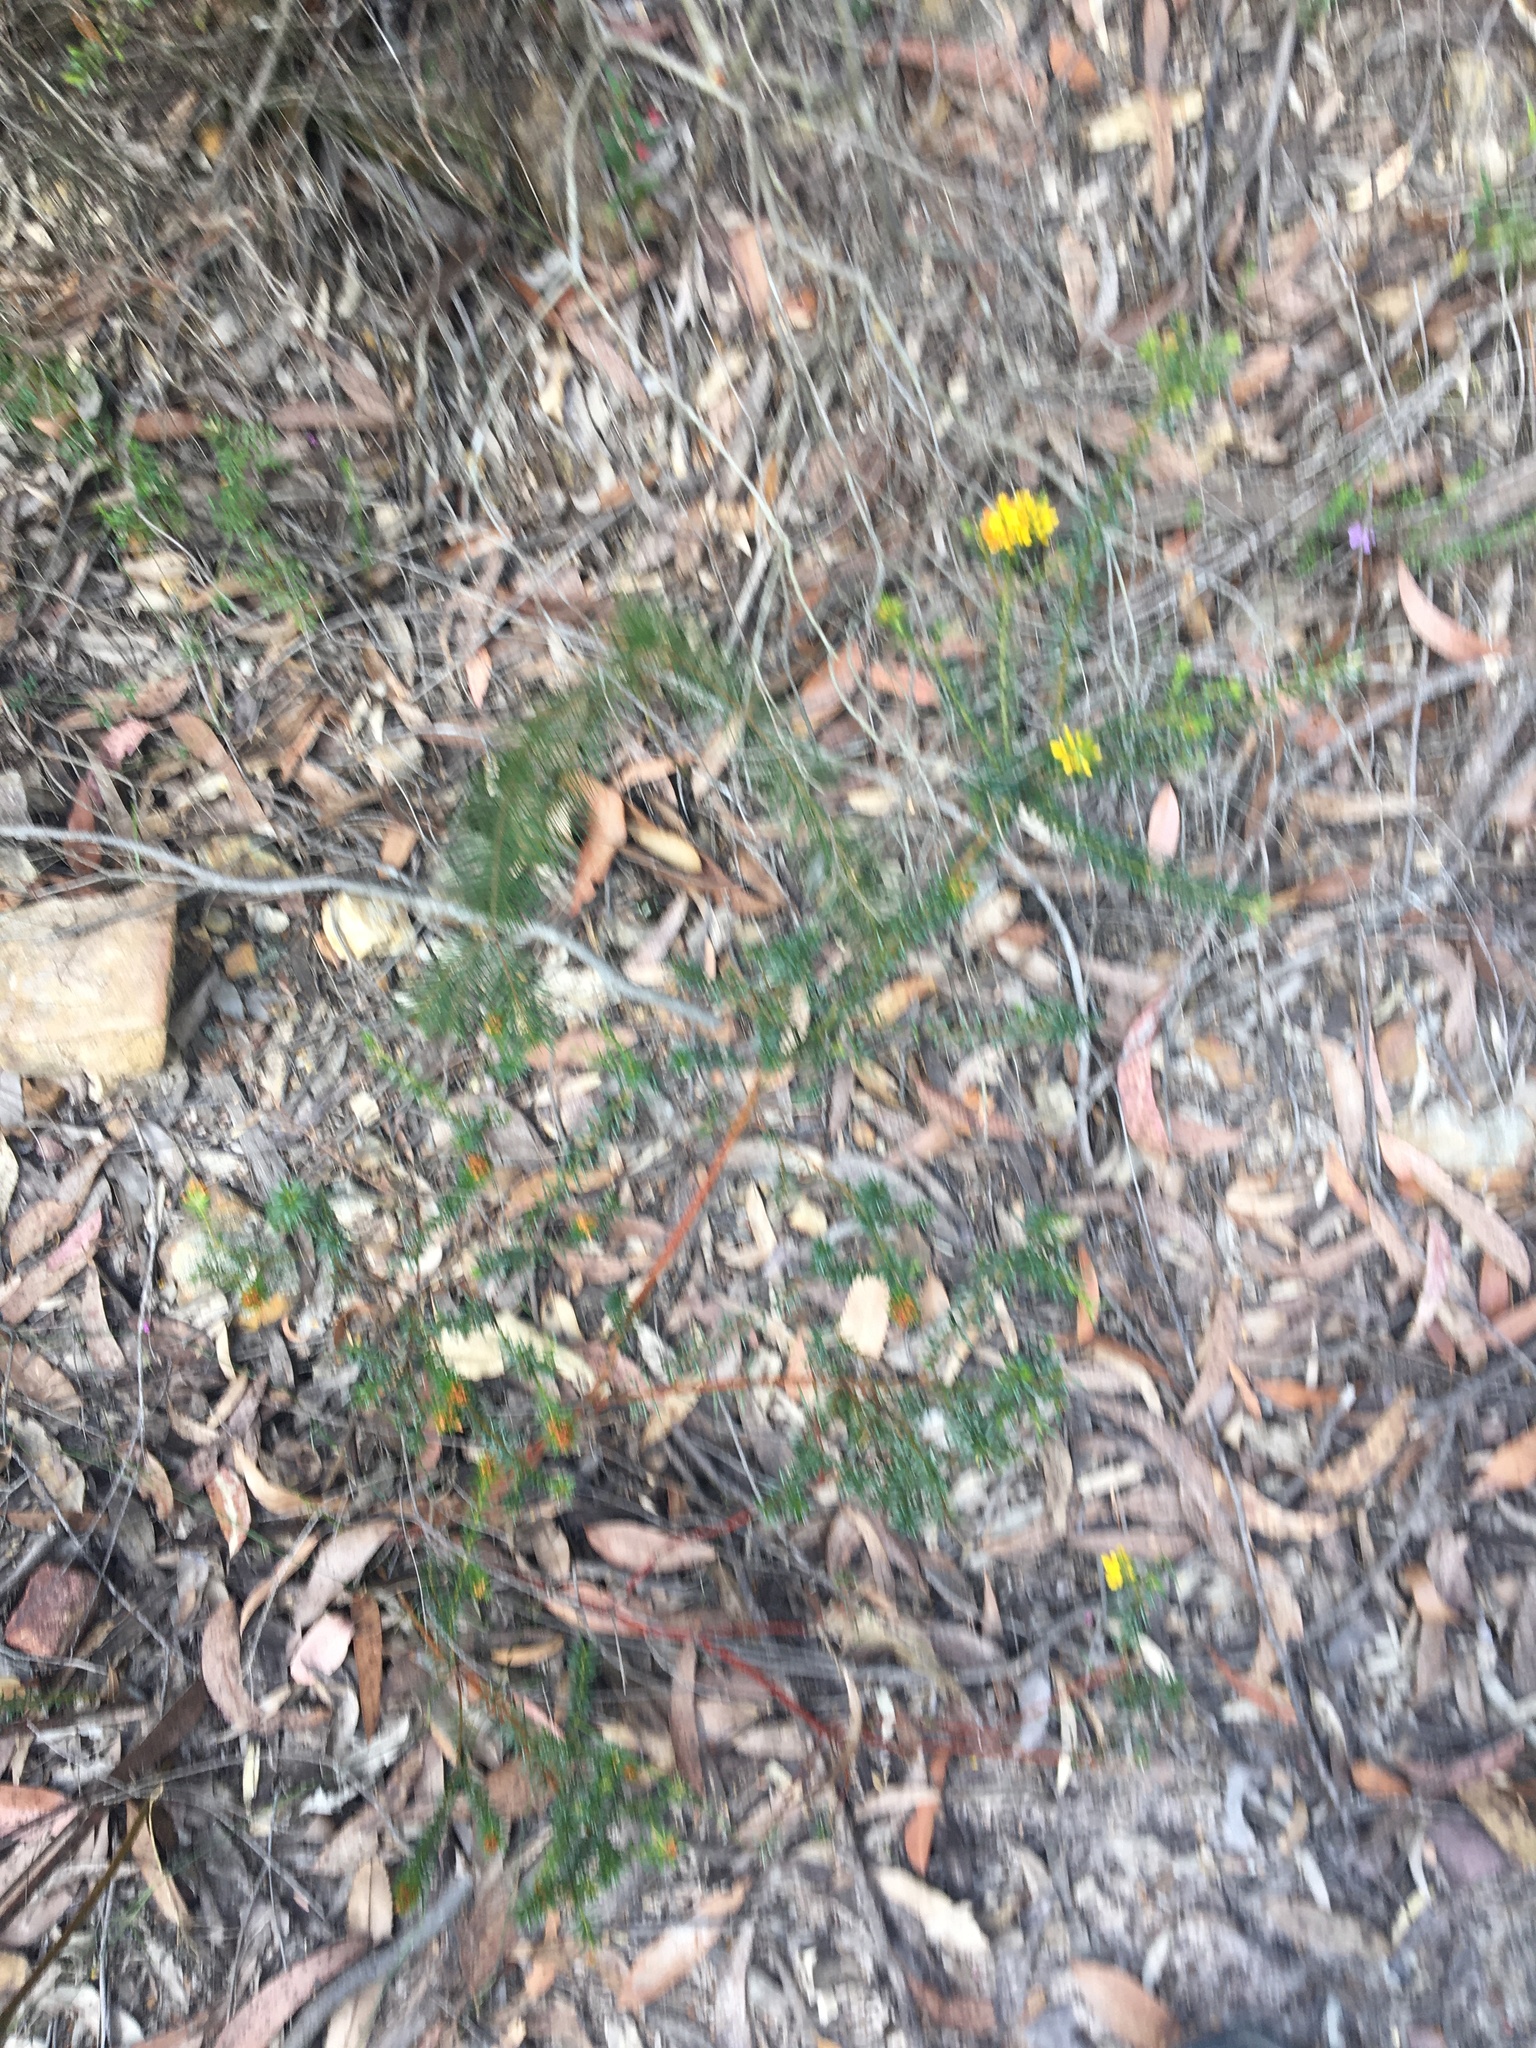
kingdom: Plantae
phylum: Tracheophyta
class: Magnoliopsida
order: Fabales
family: Fabaceae
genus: Phyllota
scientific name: Phyllota phylicoides
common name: Heath phyllota
